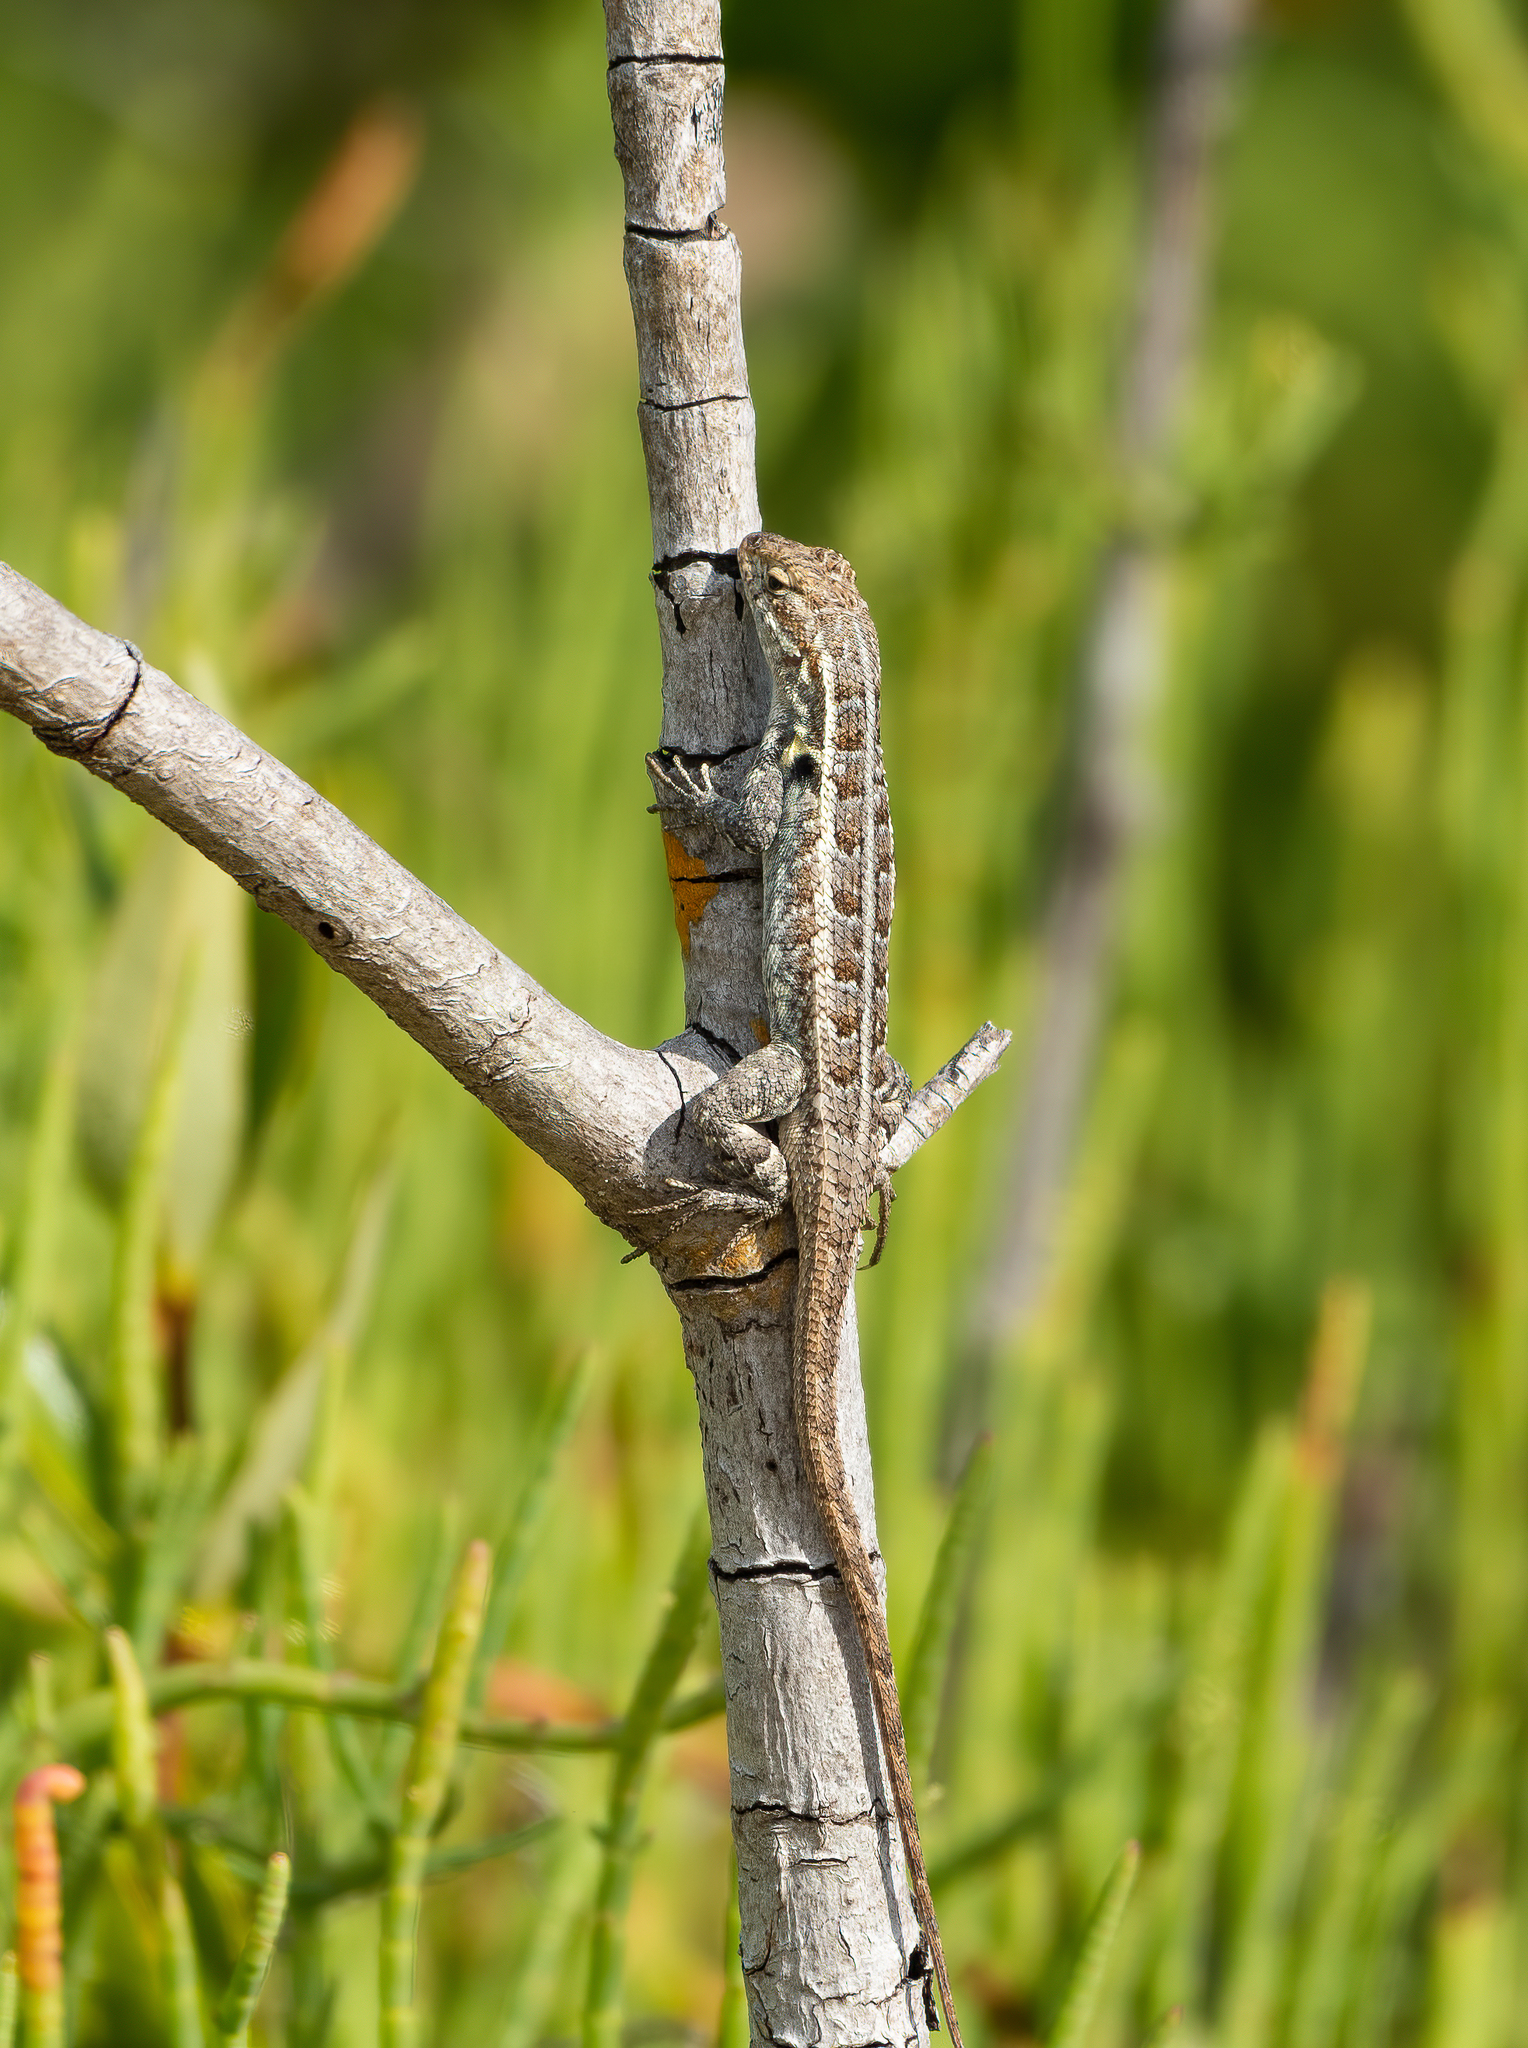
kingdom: Animalia
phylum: Chordata
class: Squamata
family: Phrynosomatidae
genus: Sceloporus
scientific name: Sceloporus cozumelae
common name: Cozumel spiny lizard
